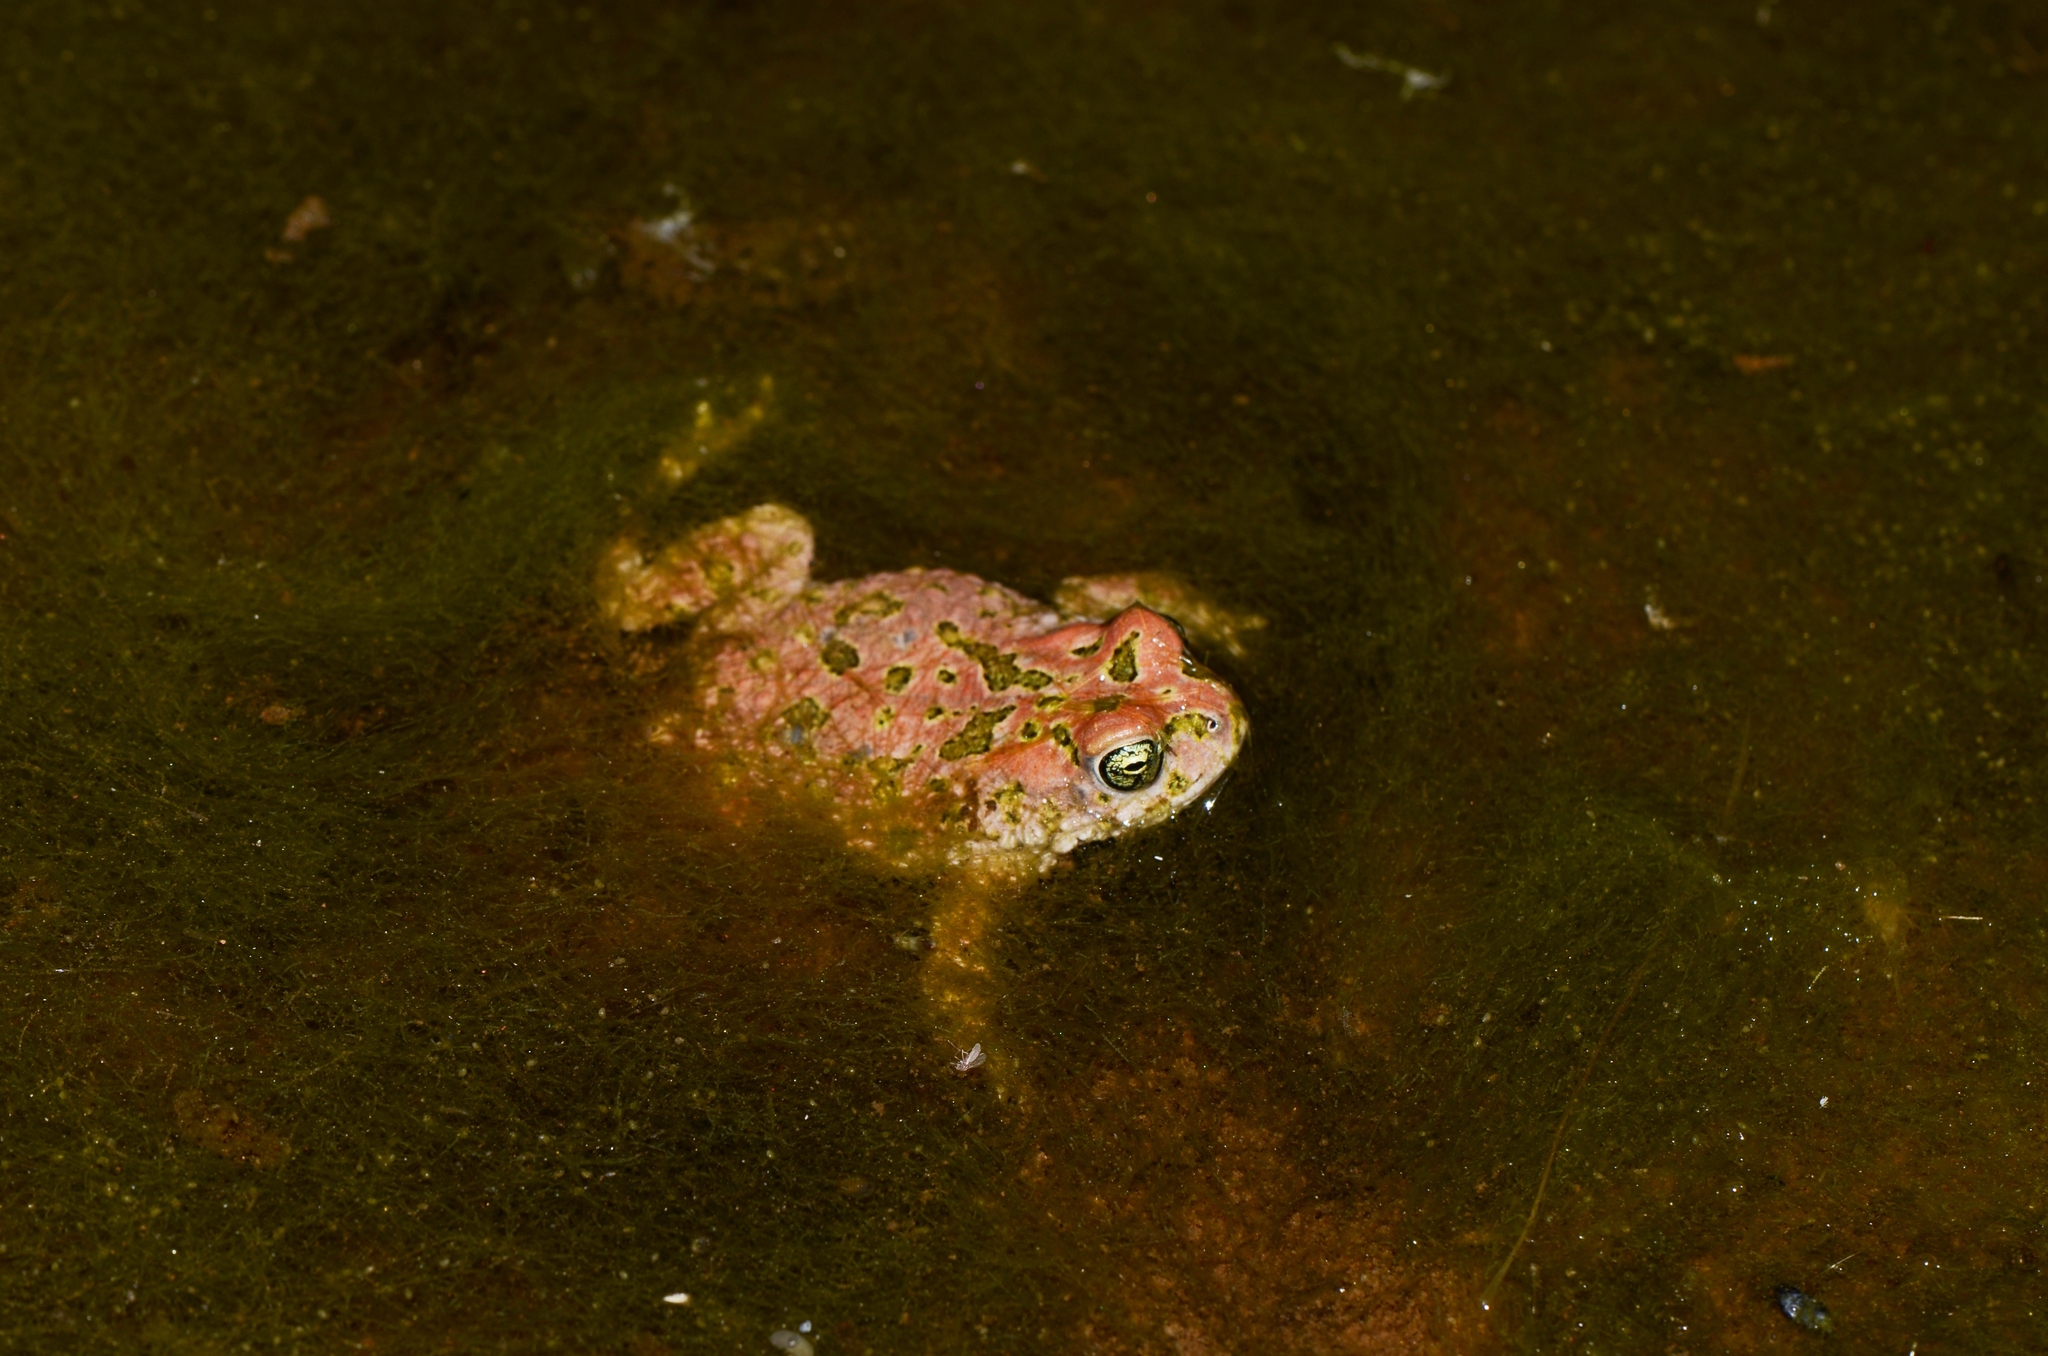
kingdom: Animalia
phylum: Chordata
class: Amphibia
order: Anura
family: Bufonidae
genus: Vandijkophrynus
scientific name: Vandijkophrynus robinsoni
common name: Paradise toad
